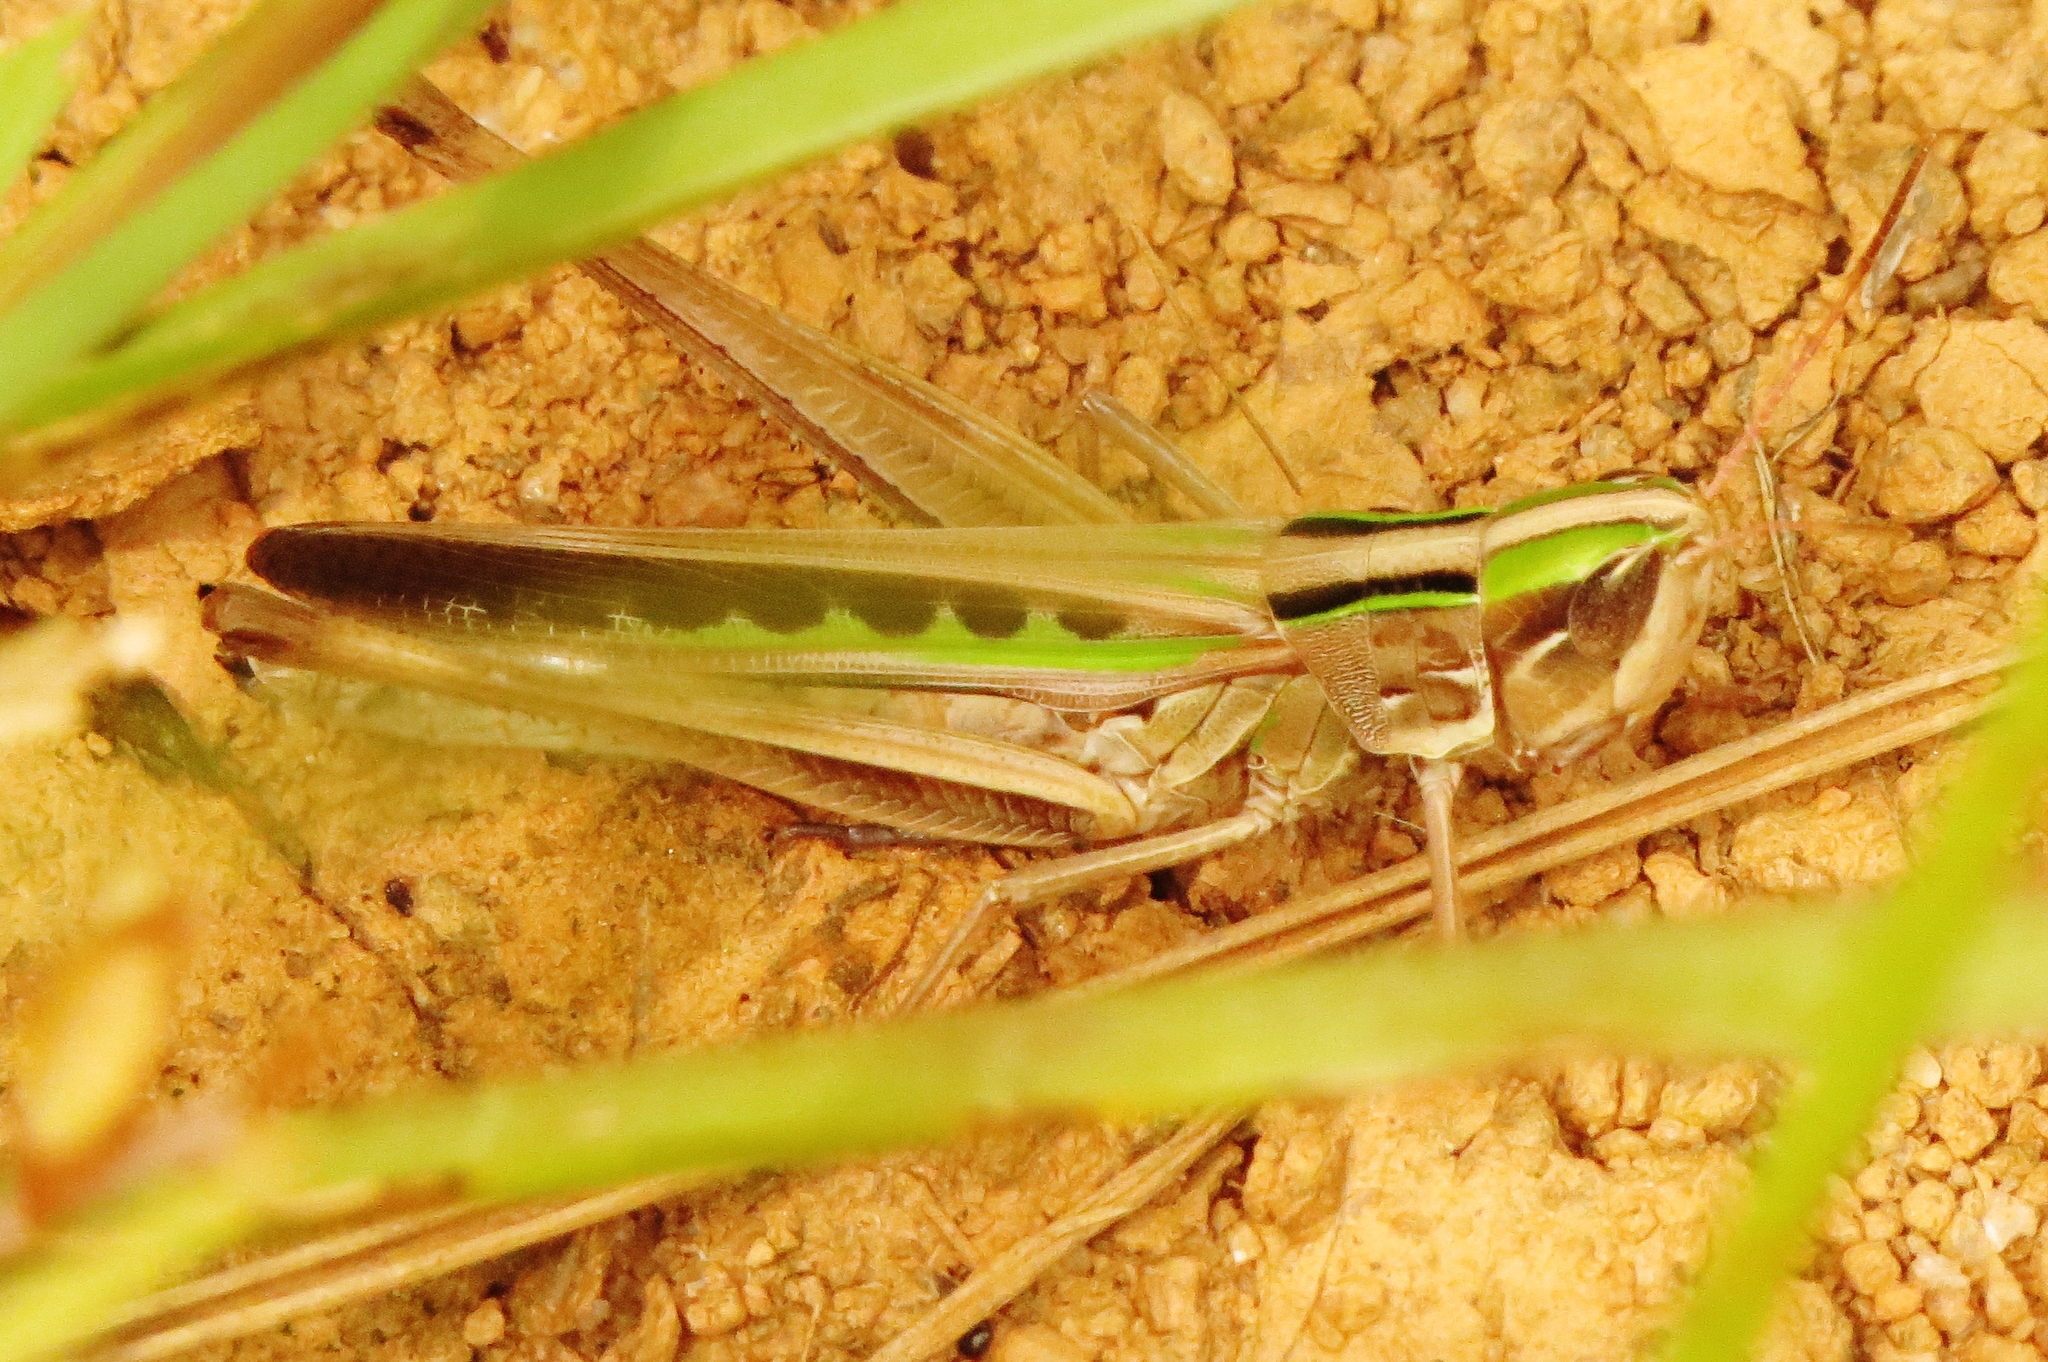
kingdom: Animalia
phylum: Arthropoda
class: Insecta
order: Orthoptera
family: Acrididae
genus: Syrbula
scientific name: Syrbula admirabilis
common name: Handsome grasshopper
